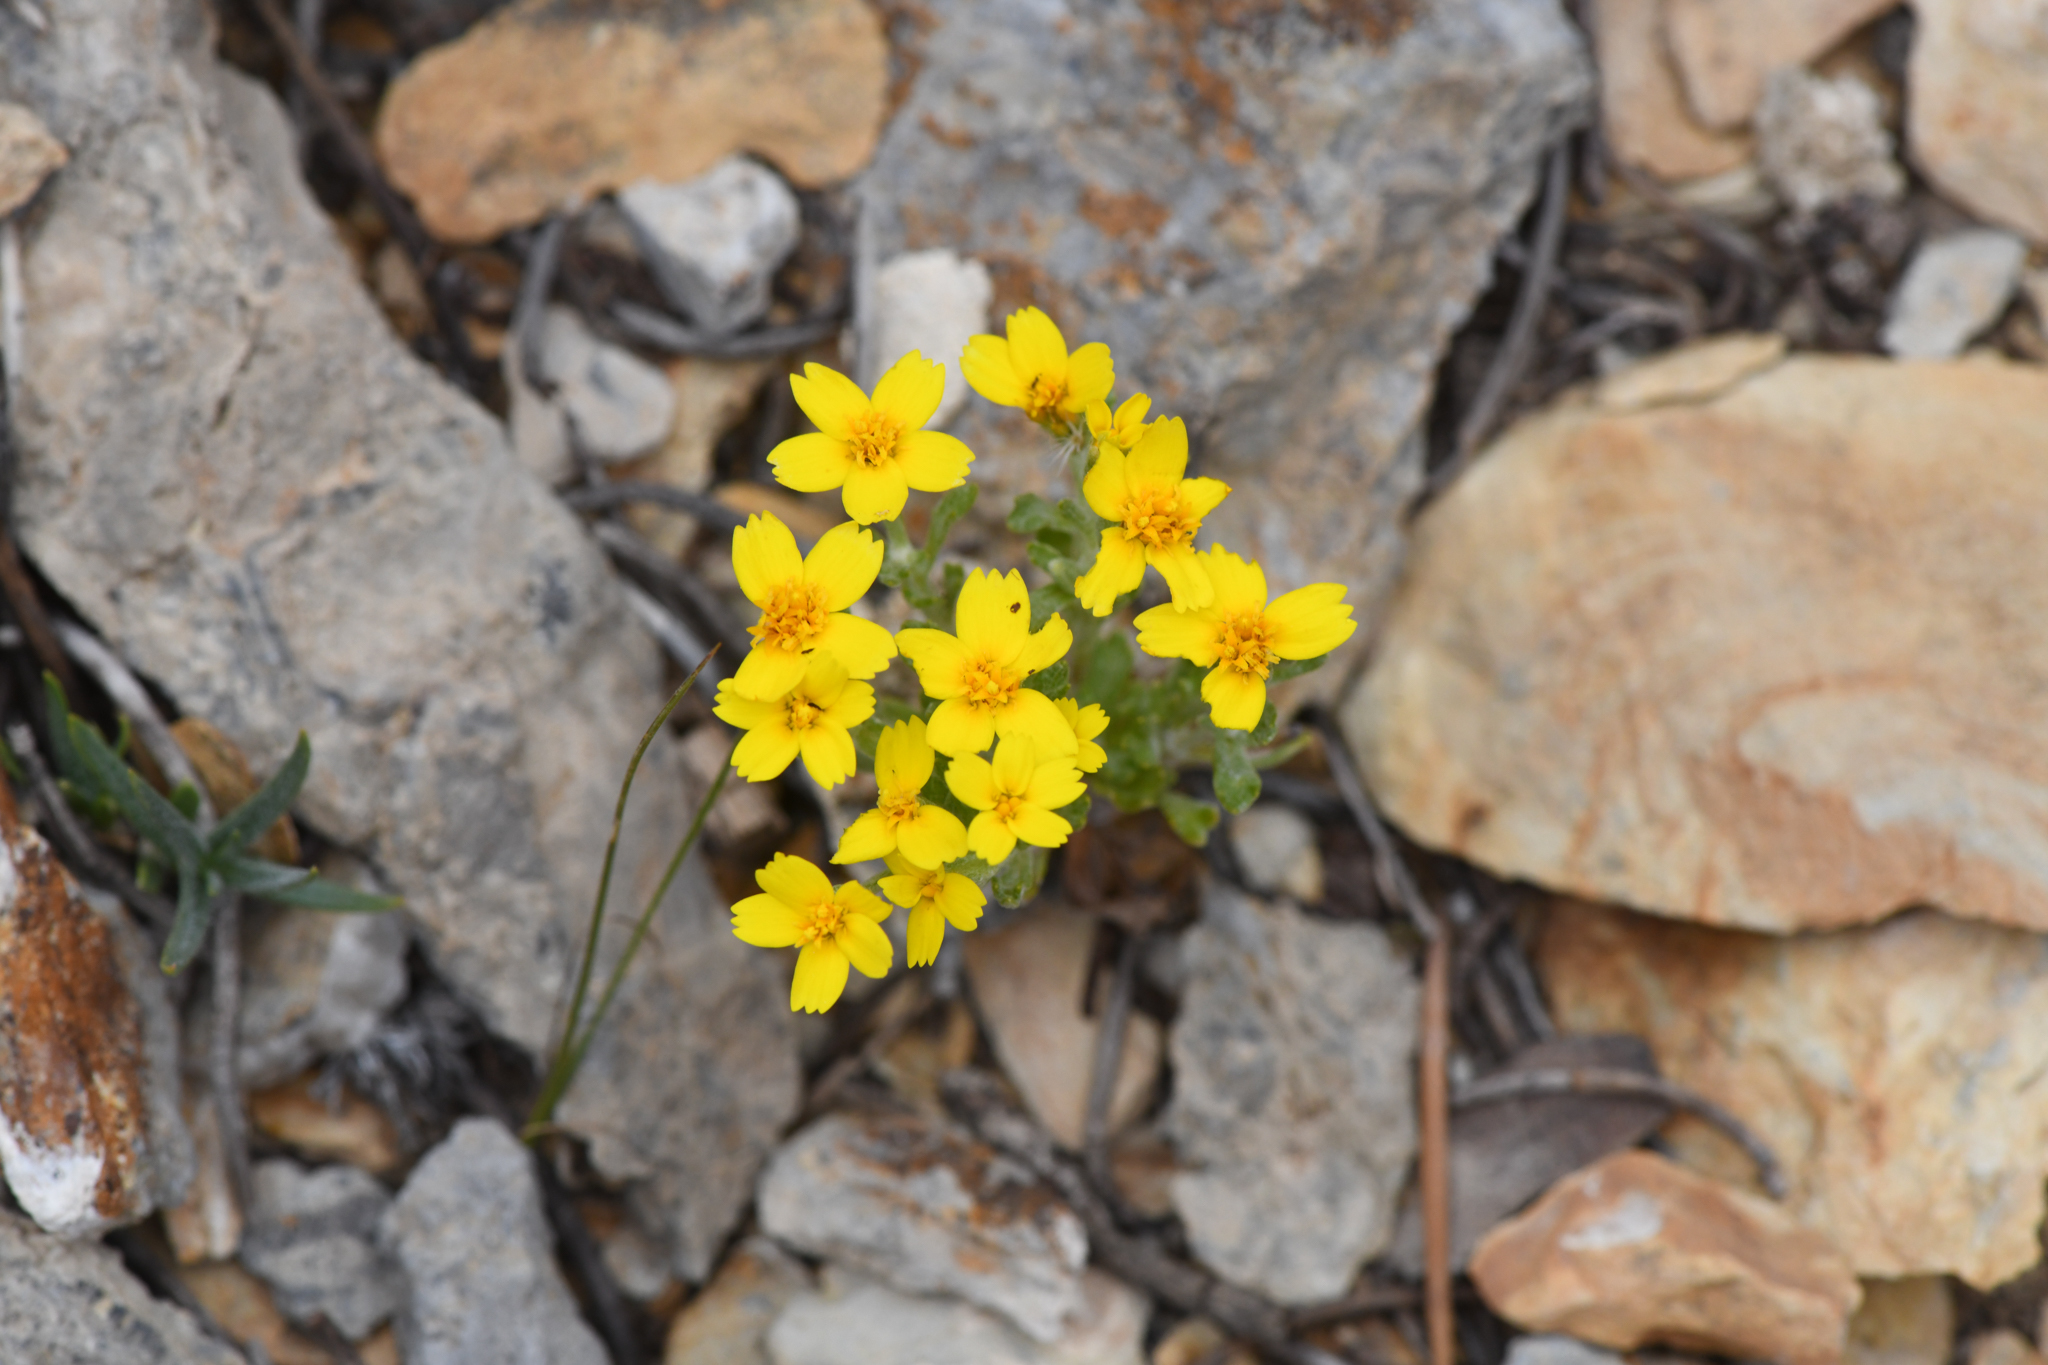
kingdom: Plantae
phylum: Tracheophyta
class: Magnoliopsida
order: Asterales
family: Asteraceae
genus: Syntrichopappus
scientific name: Syntrichopappus fremontii
